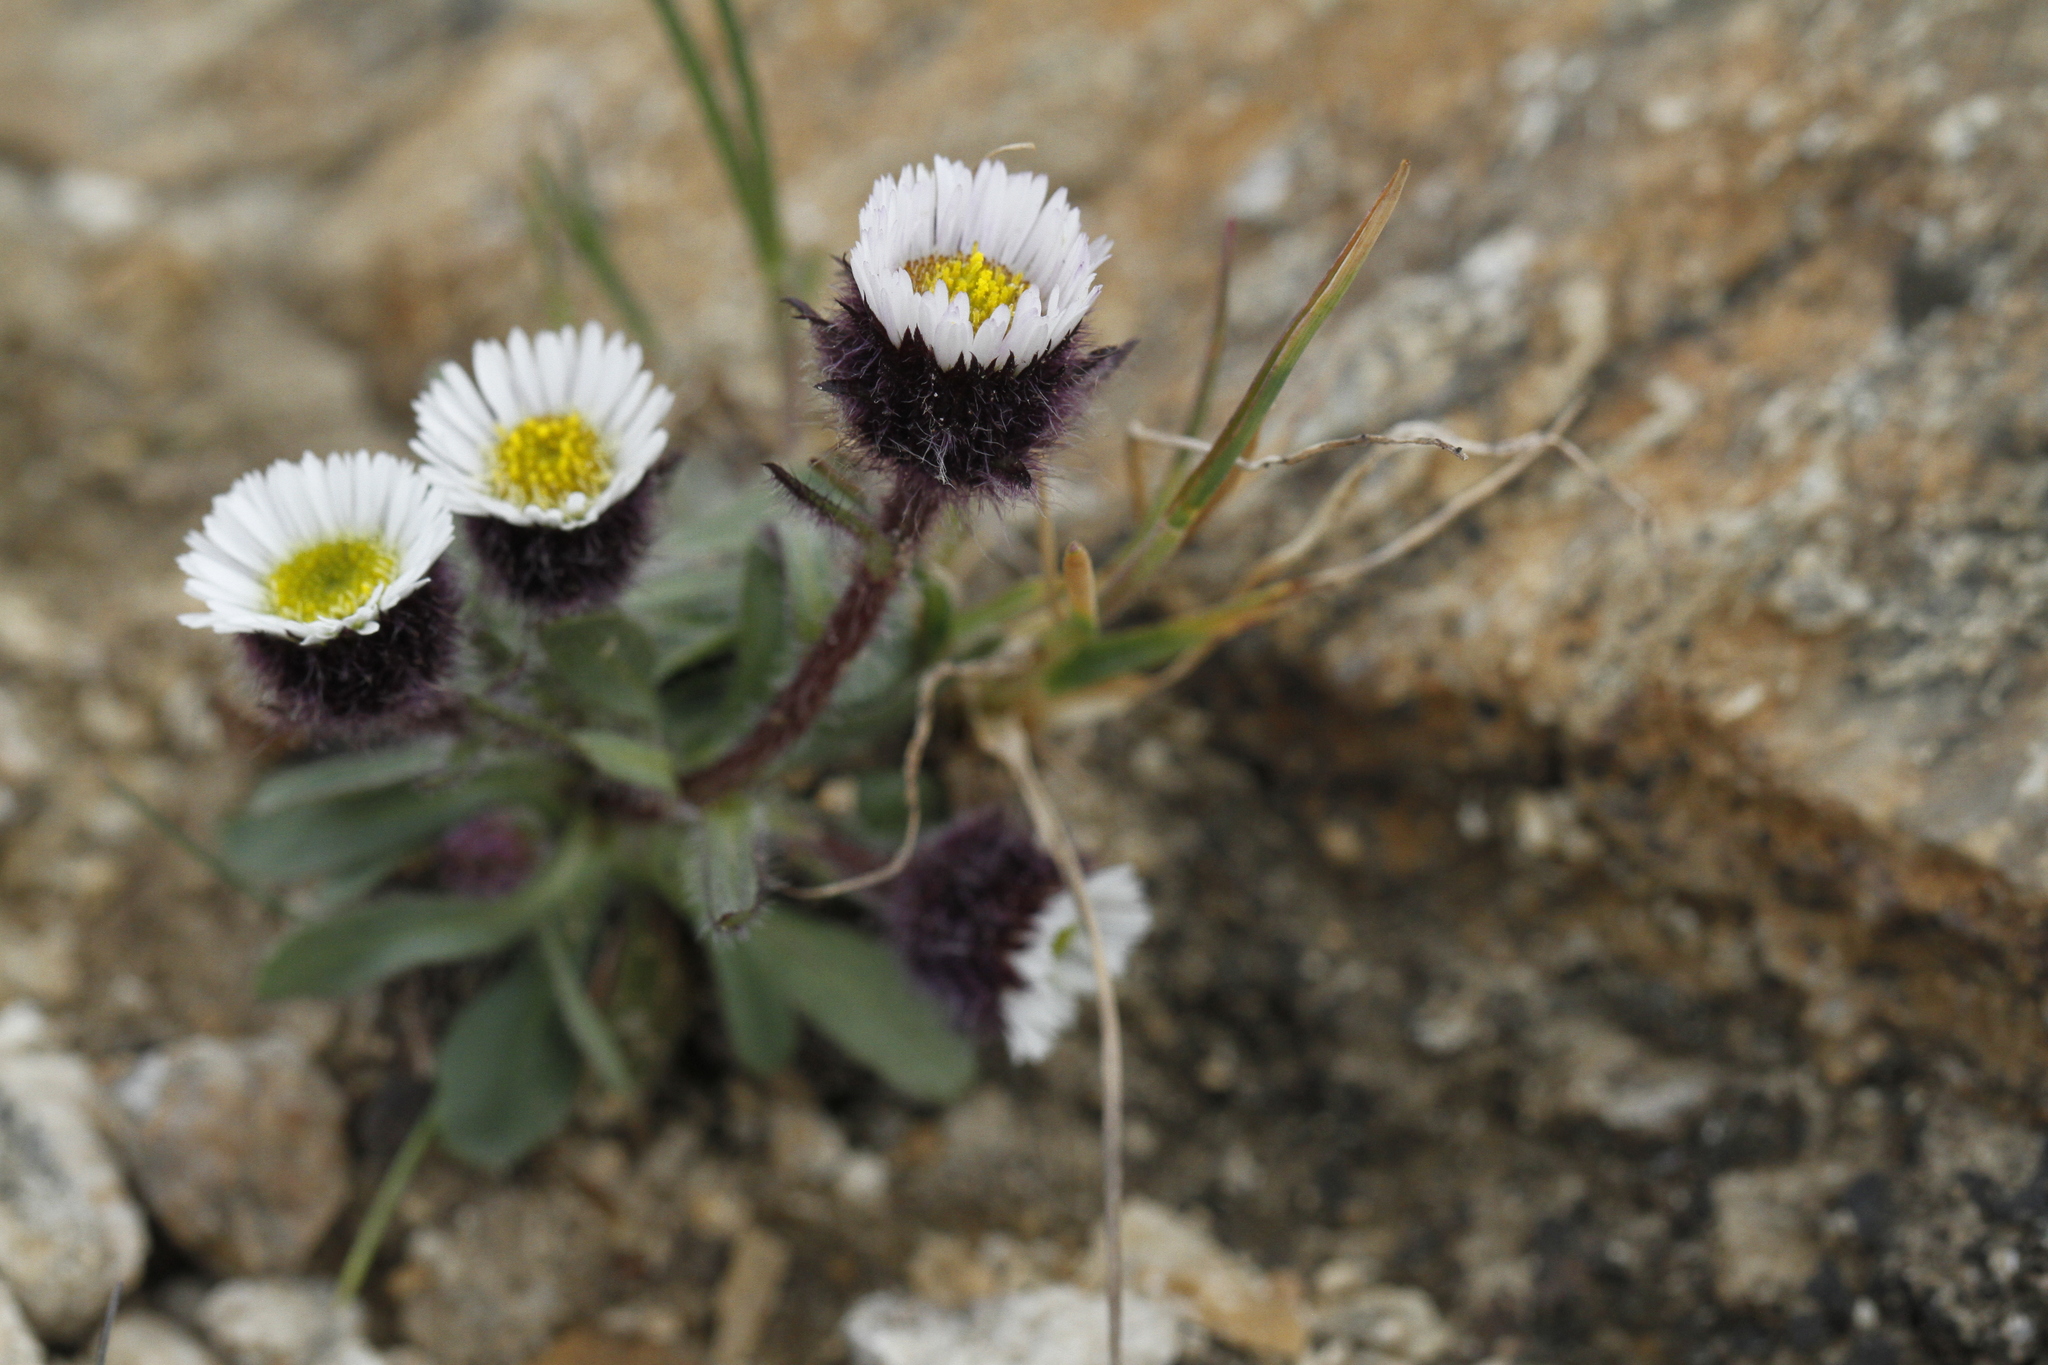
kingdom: Plantae
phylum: Tracheophyta
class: Magnoliopsida
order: Asterales
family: Asteraceae
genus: Erigeron
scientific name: Erigeron humilis
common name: Arctic-alpine fleabane
